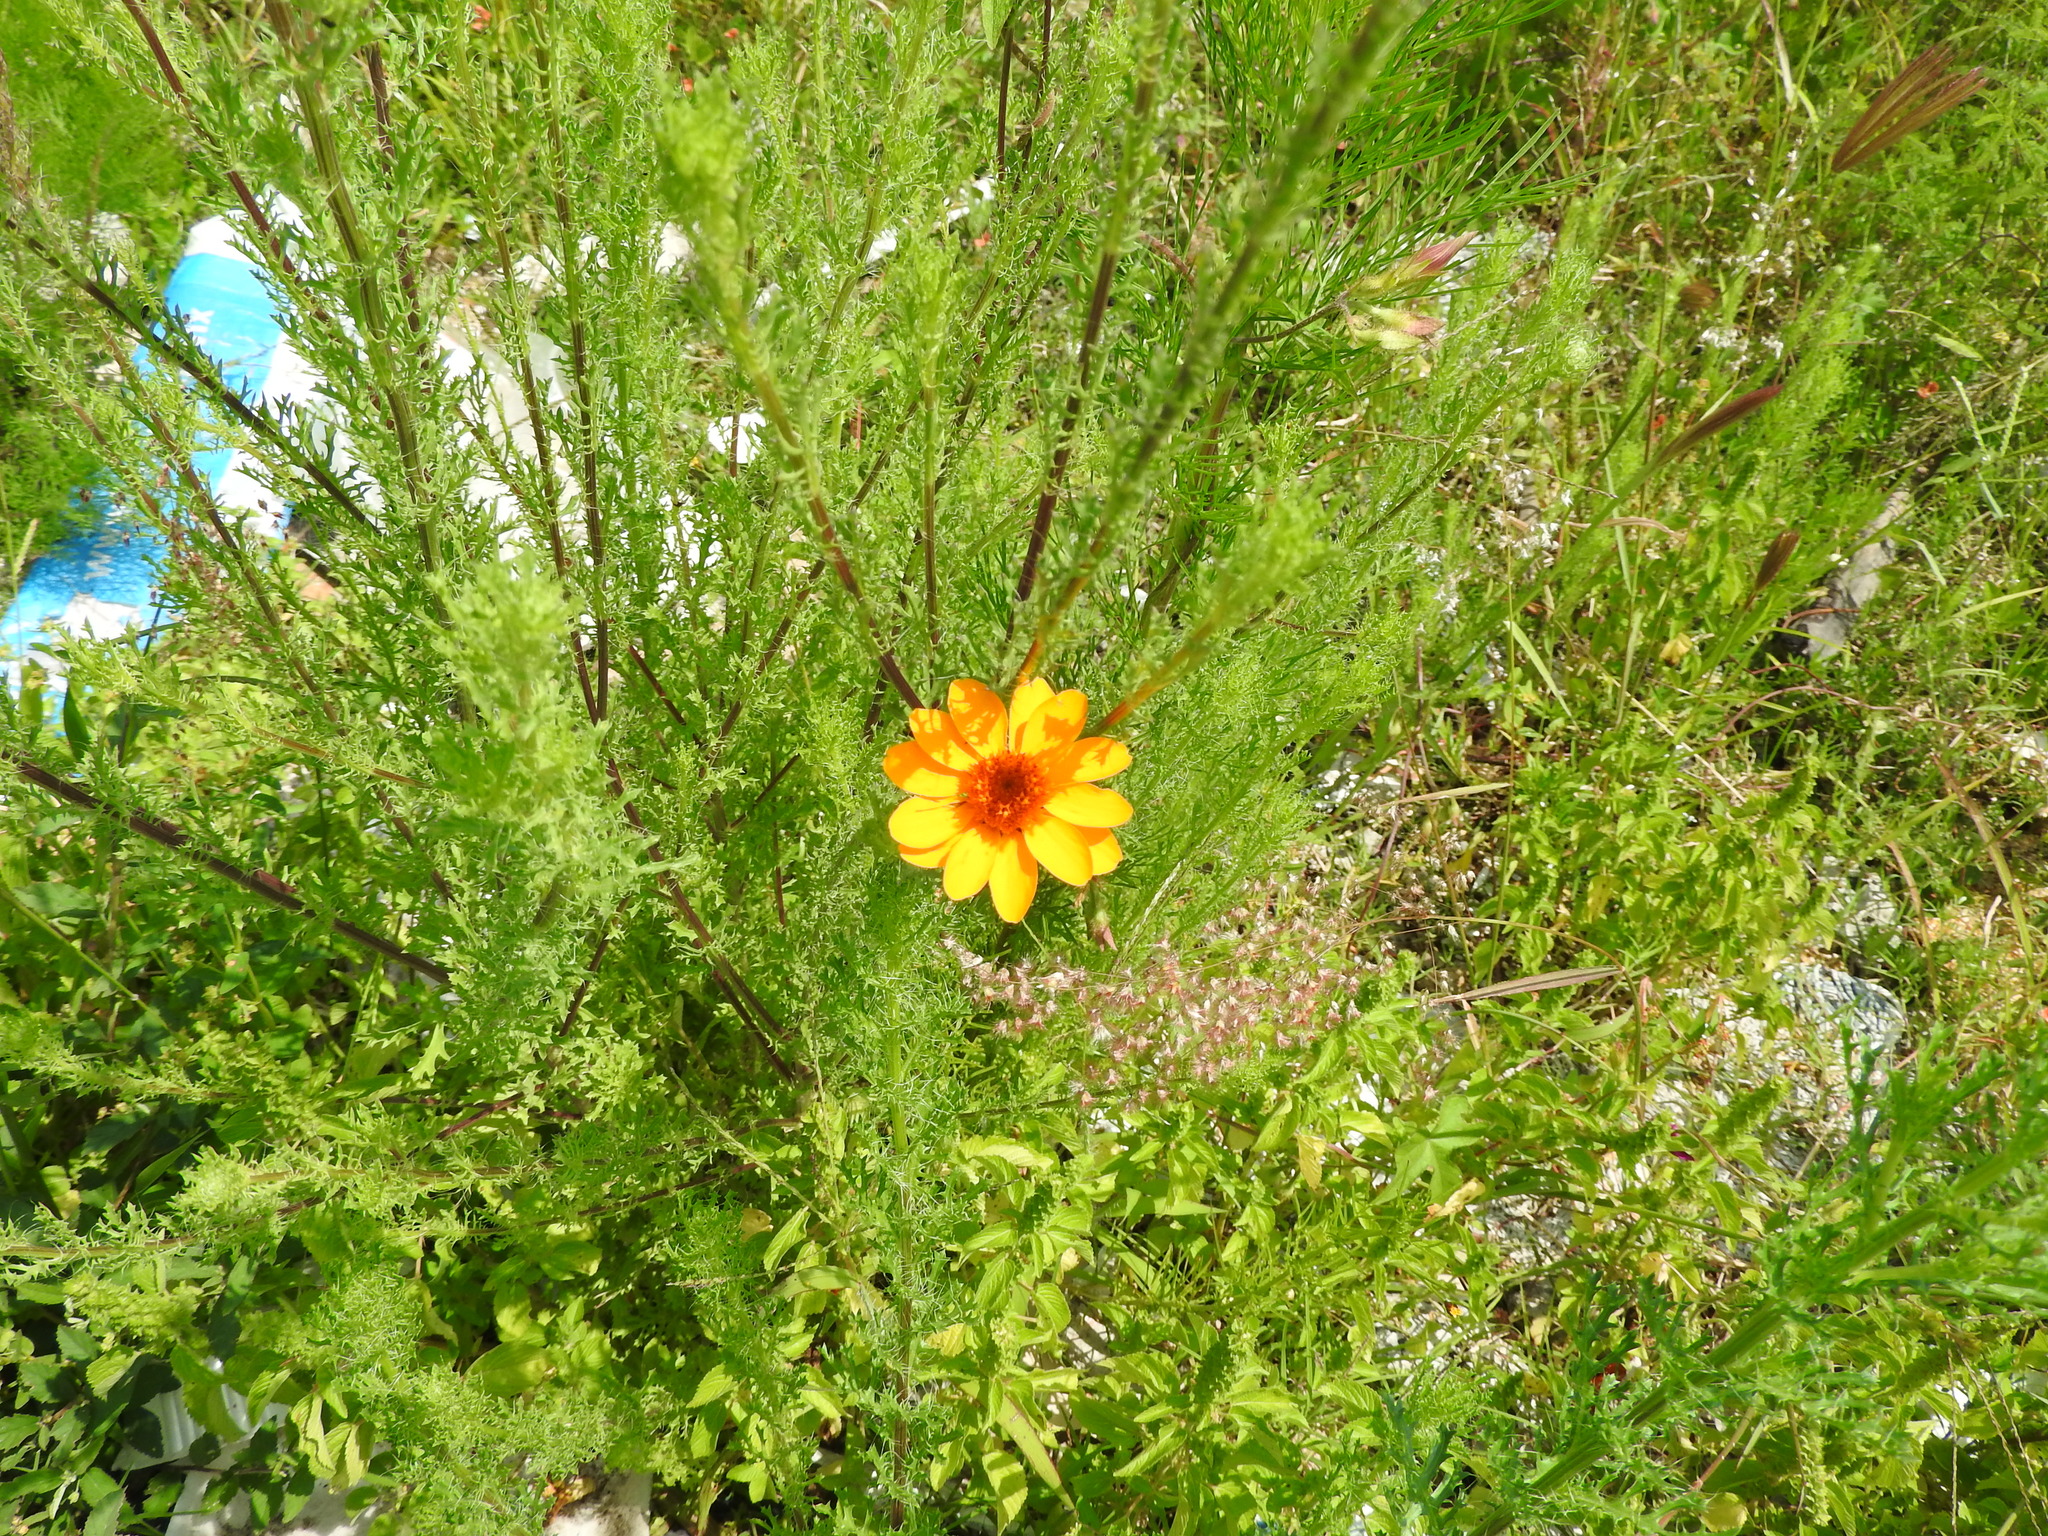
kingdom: Plantae
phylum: Tracheophyta
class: Magnoliopsida
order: Asterales
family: Asteraceae
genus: Adenophyllum
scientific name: Adenophyllum cancellatum
